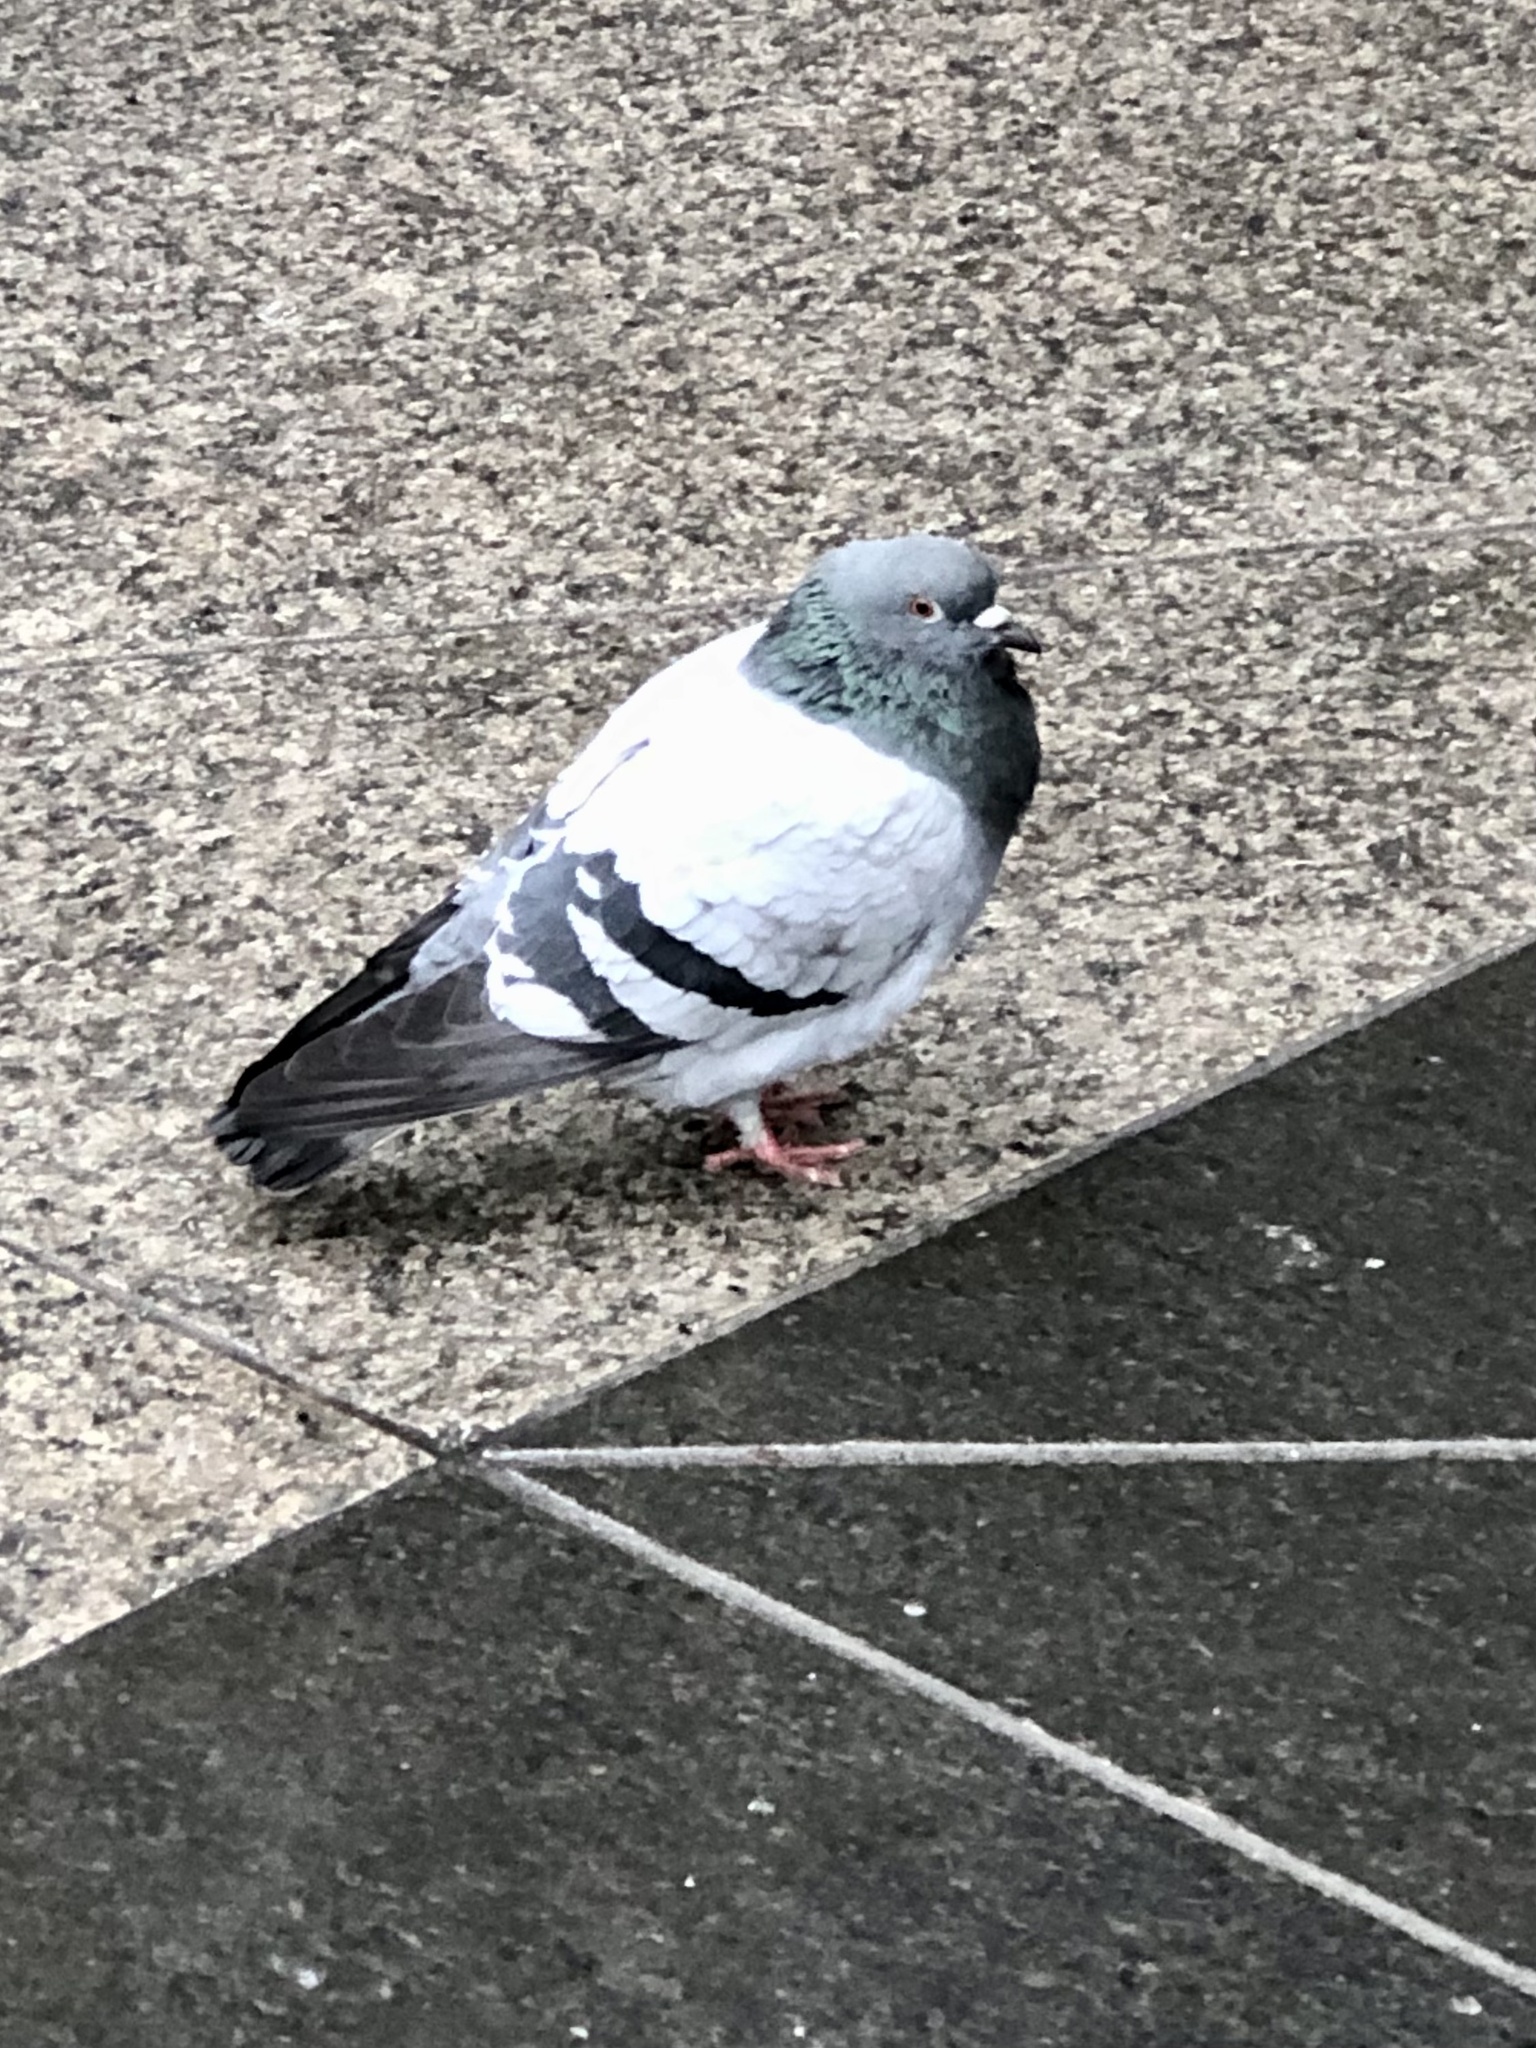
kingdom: Animalia
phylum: Chordata
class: Aves
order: Columbiformes
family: Columbidae
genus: Columba
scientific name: Columba livia
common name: Rock pigeon
